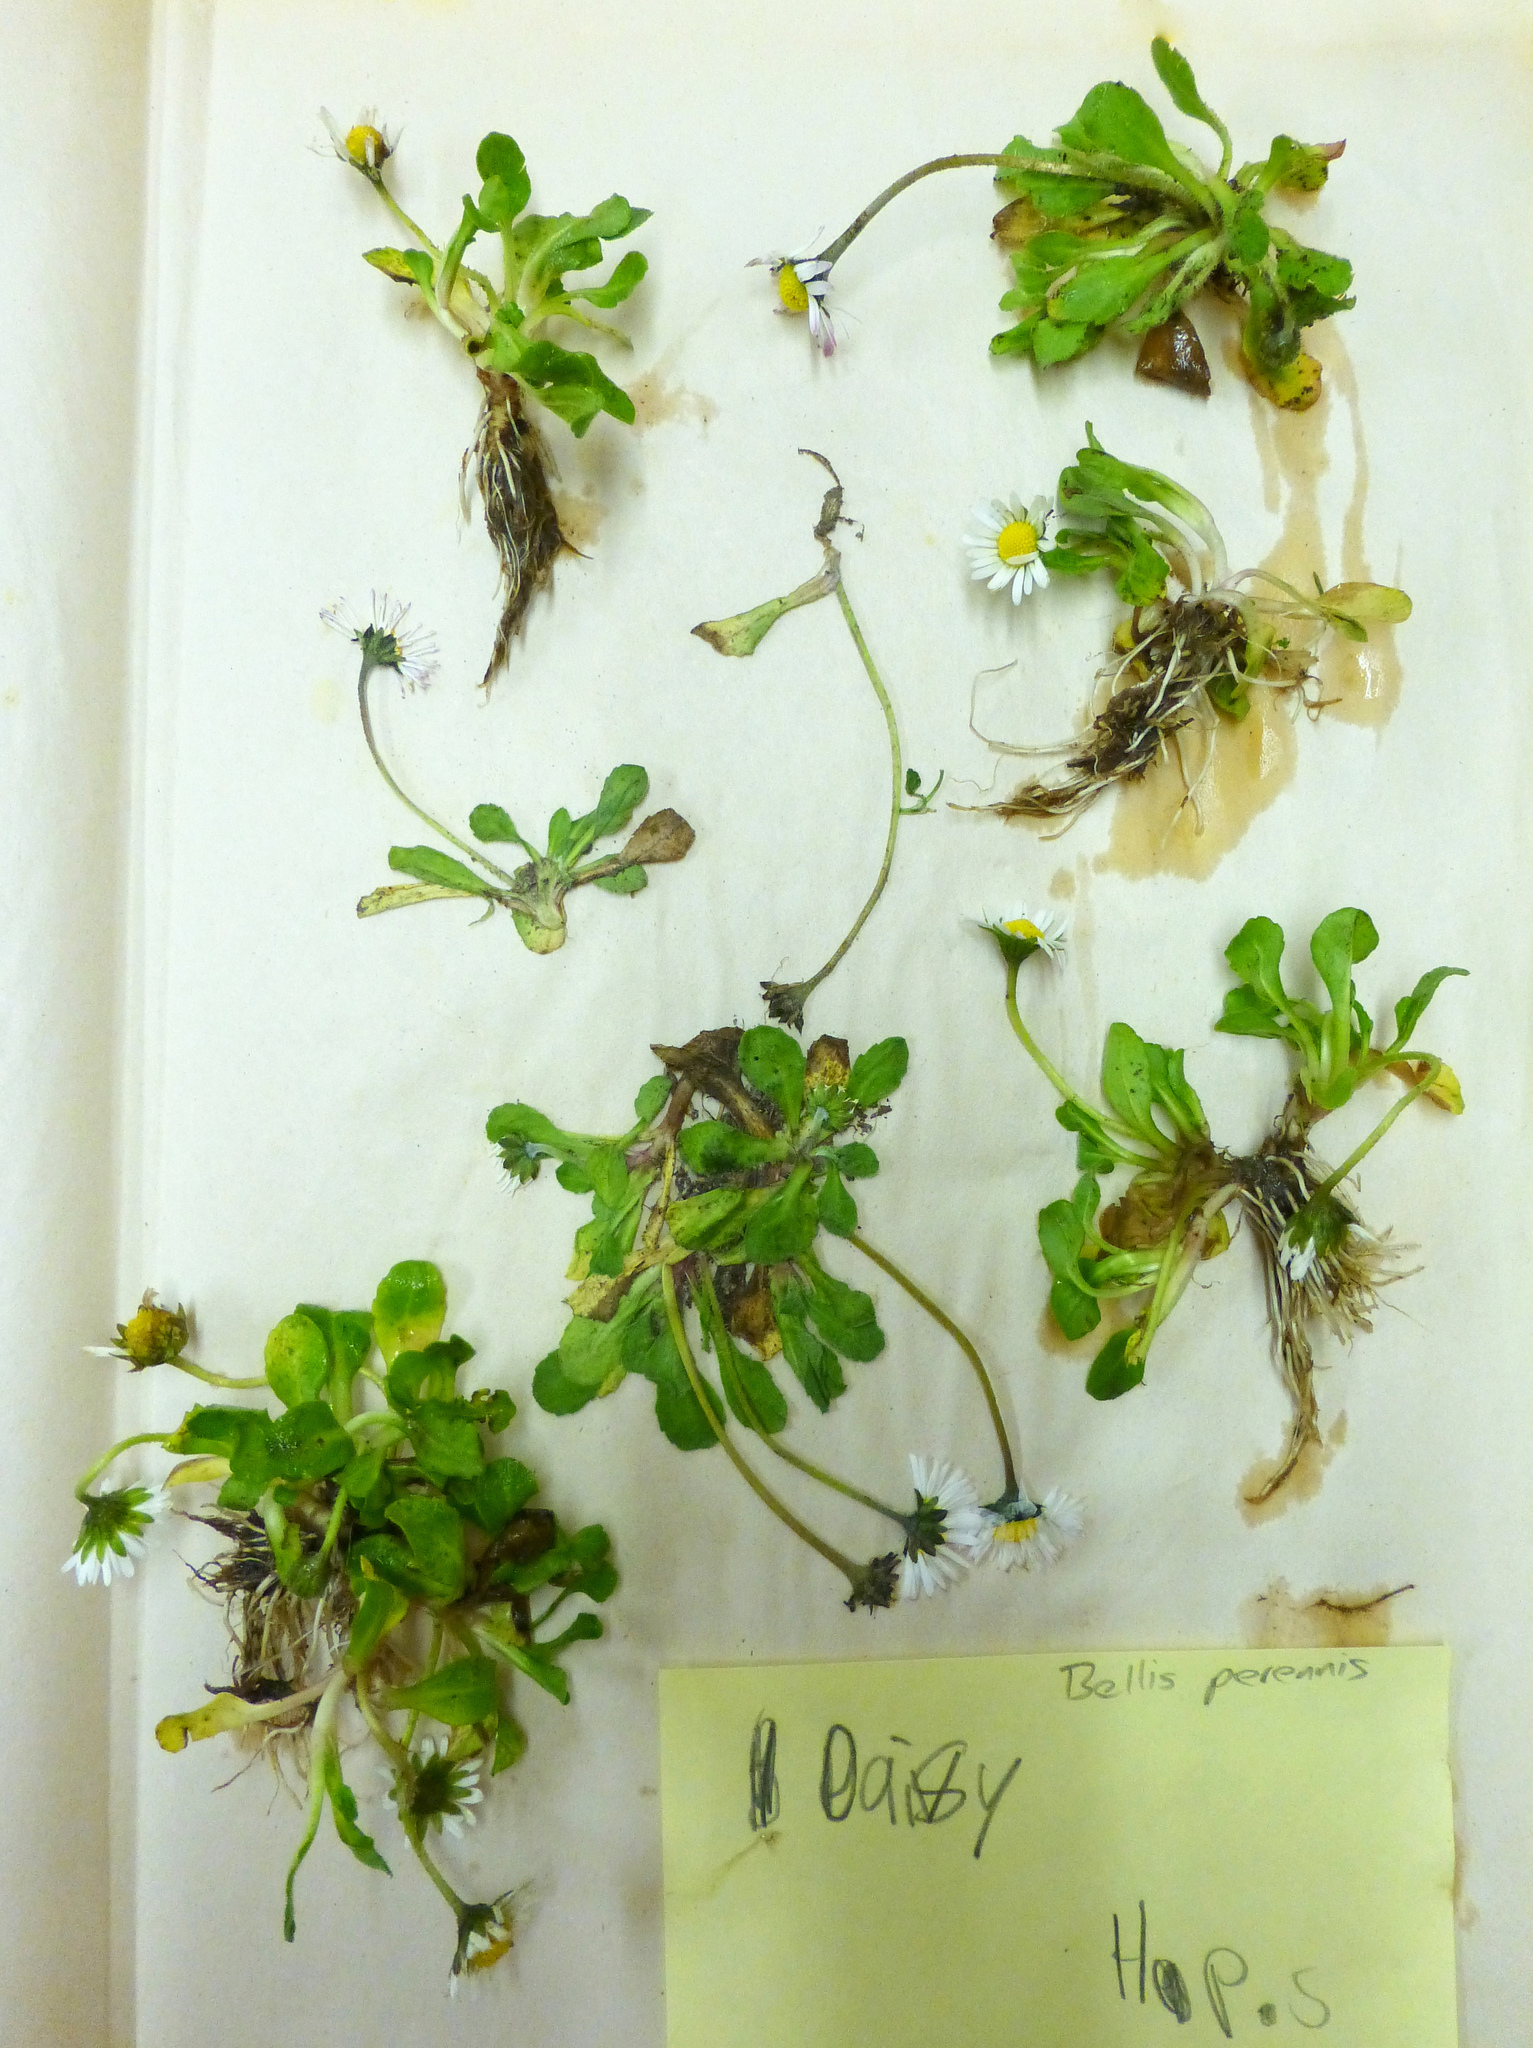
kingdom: Plantae
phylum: Tracheophyta
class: Magnoliopsida
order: Asterales
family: Asteraceae
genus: Bellis
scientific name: Bellis perennis
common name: Lawndaisy
